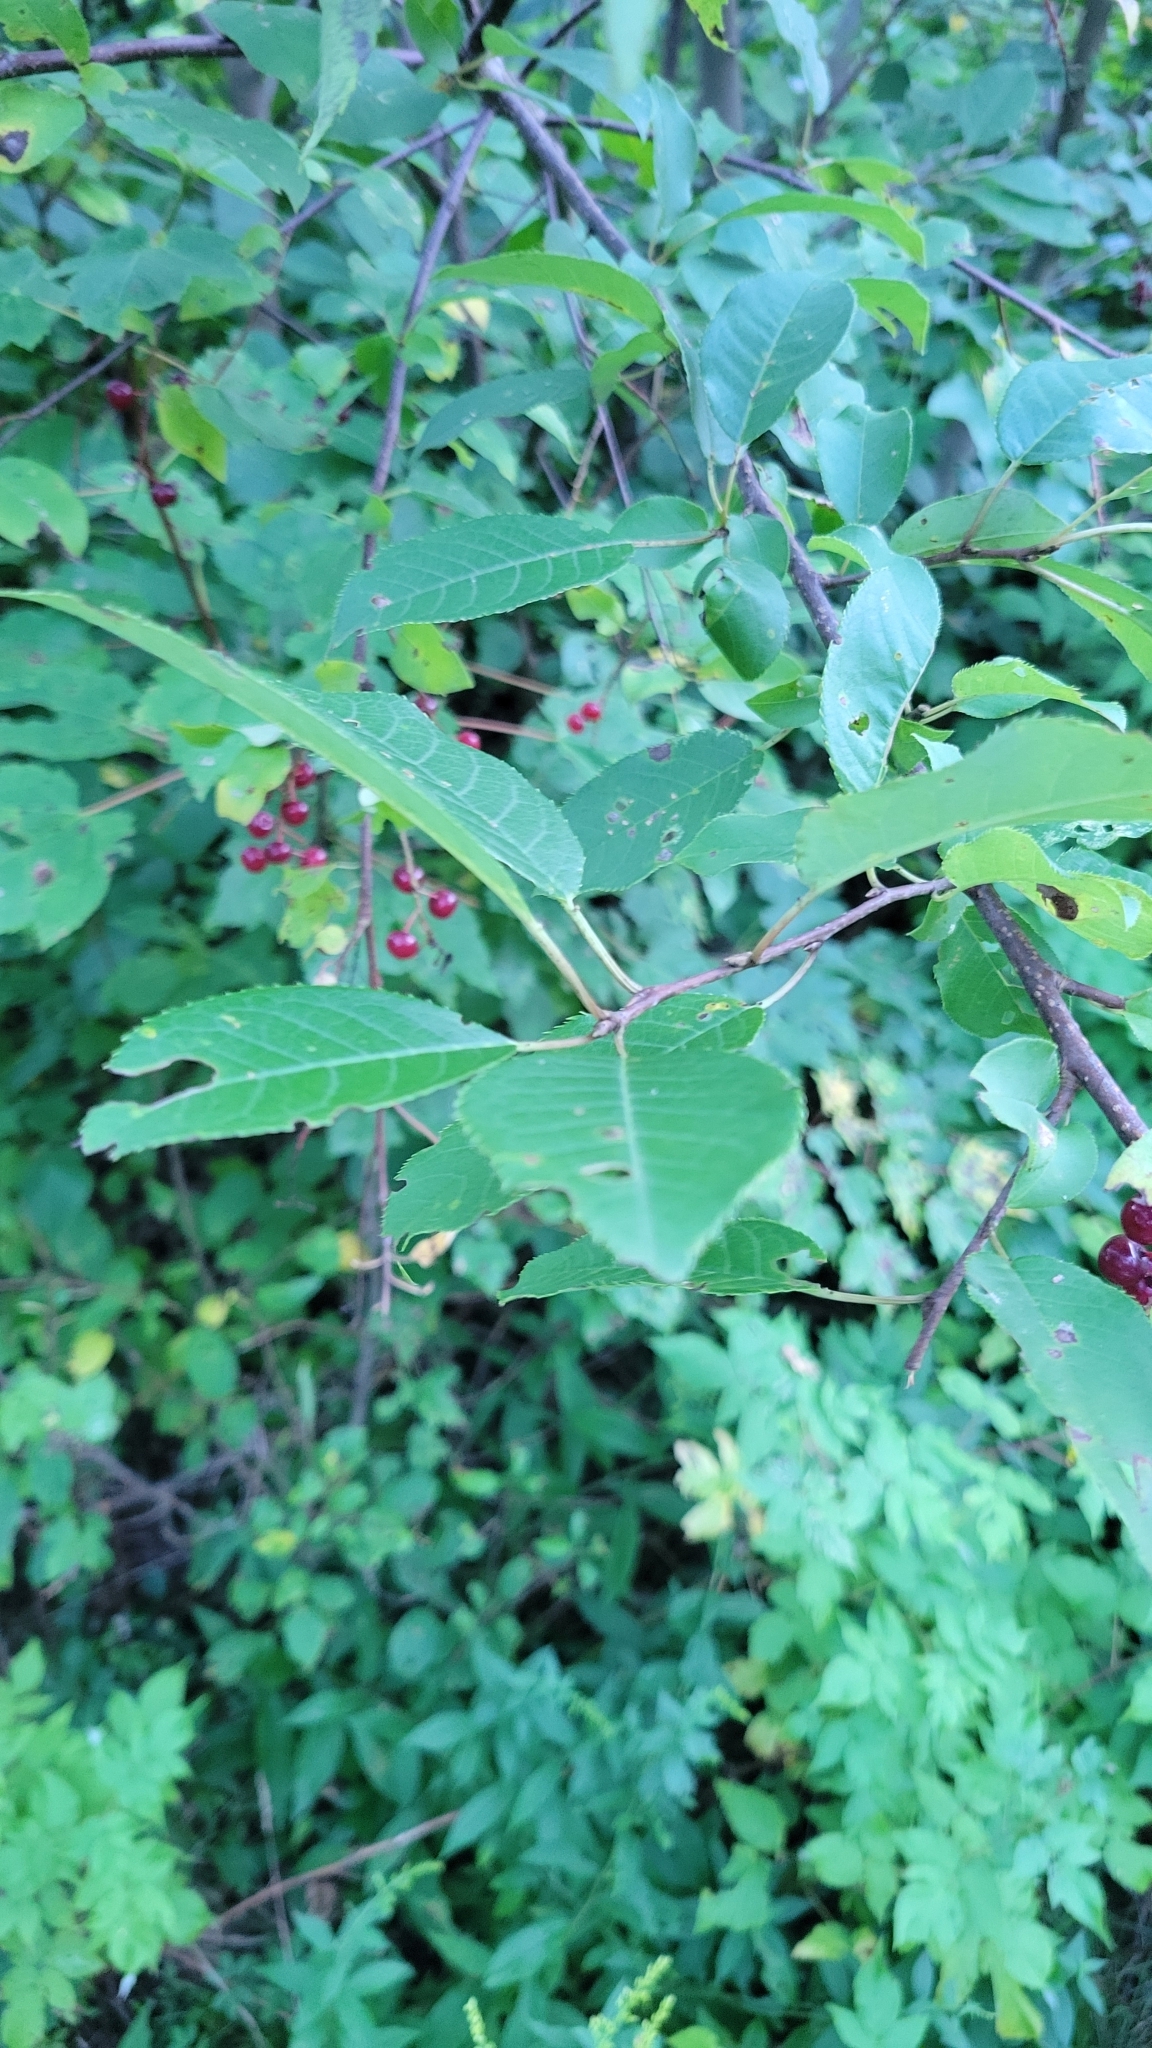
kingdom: Plantae
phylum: Tracheophyta
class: Magnoliopsida
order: Rosales
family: Rosaceae
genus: Prunus
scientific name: Prunus virginiana
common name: Chokecherry
